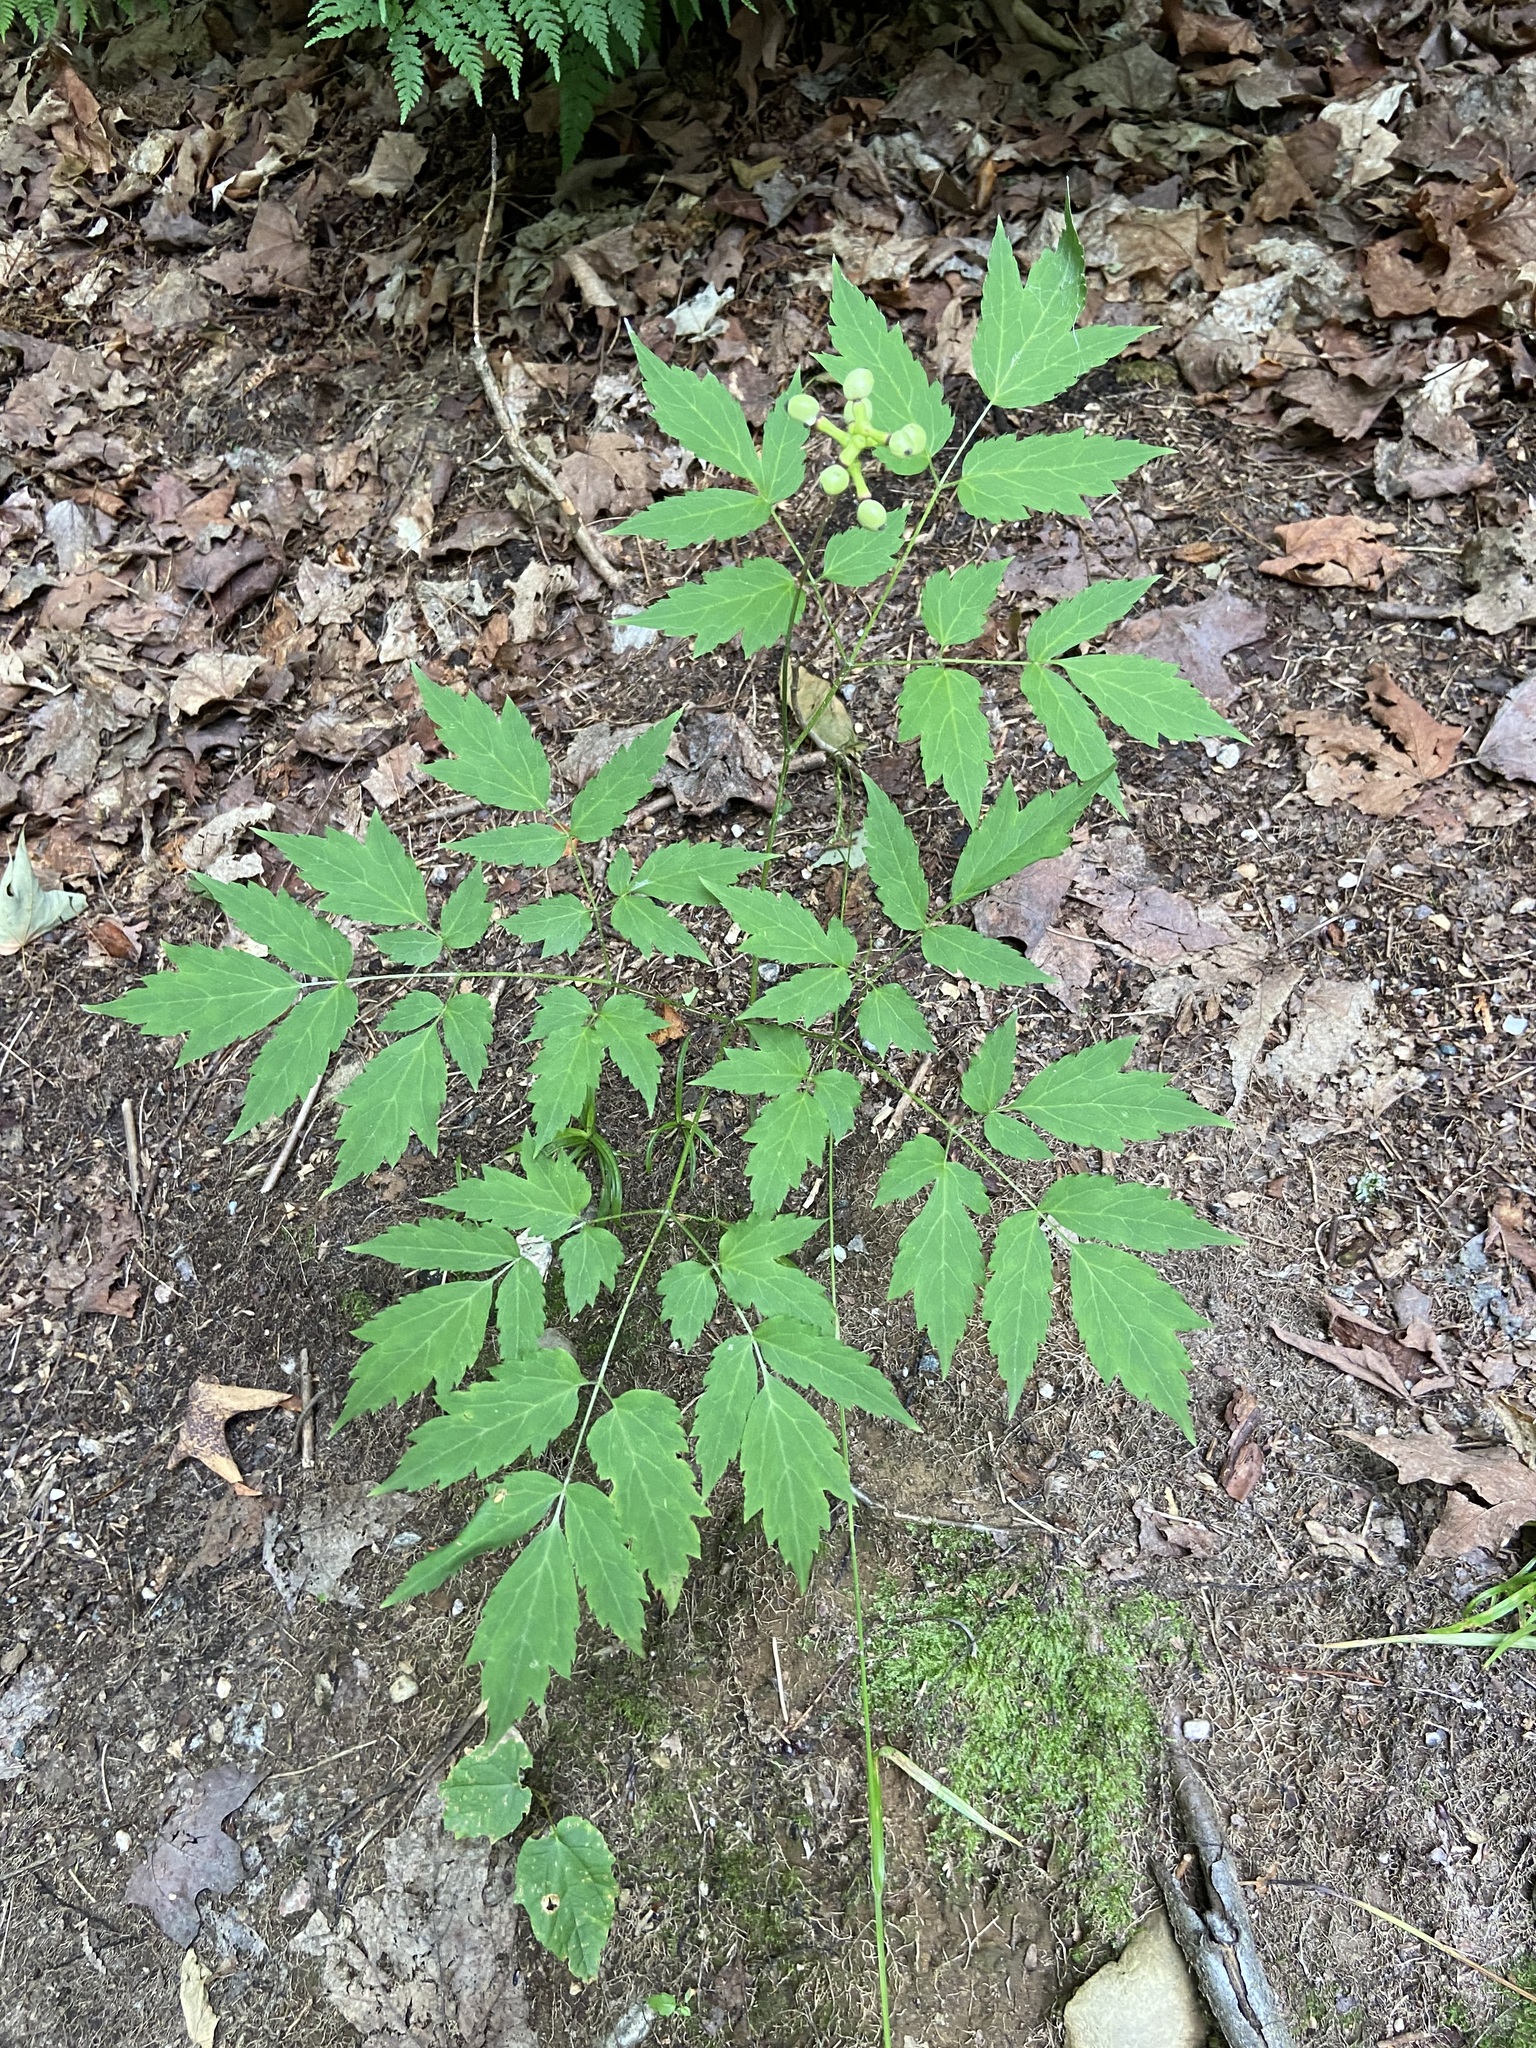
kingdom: Plantae
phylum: Tracheophyta
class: Magnoliopsida
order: Ranunculales
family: Ranunculaceae
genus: Actaea
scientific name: Actaea pachypoda
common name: Doll's-eyes
